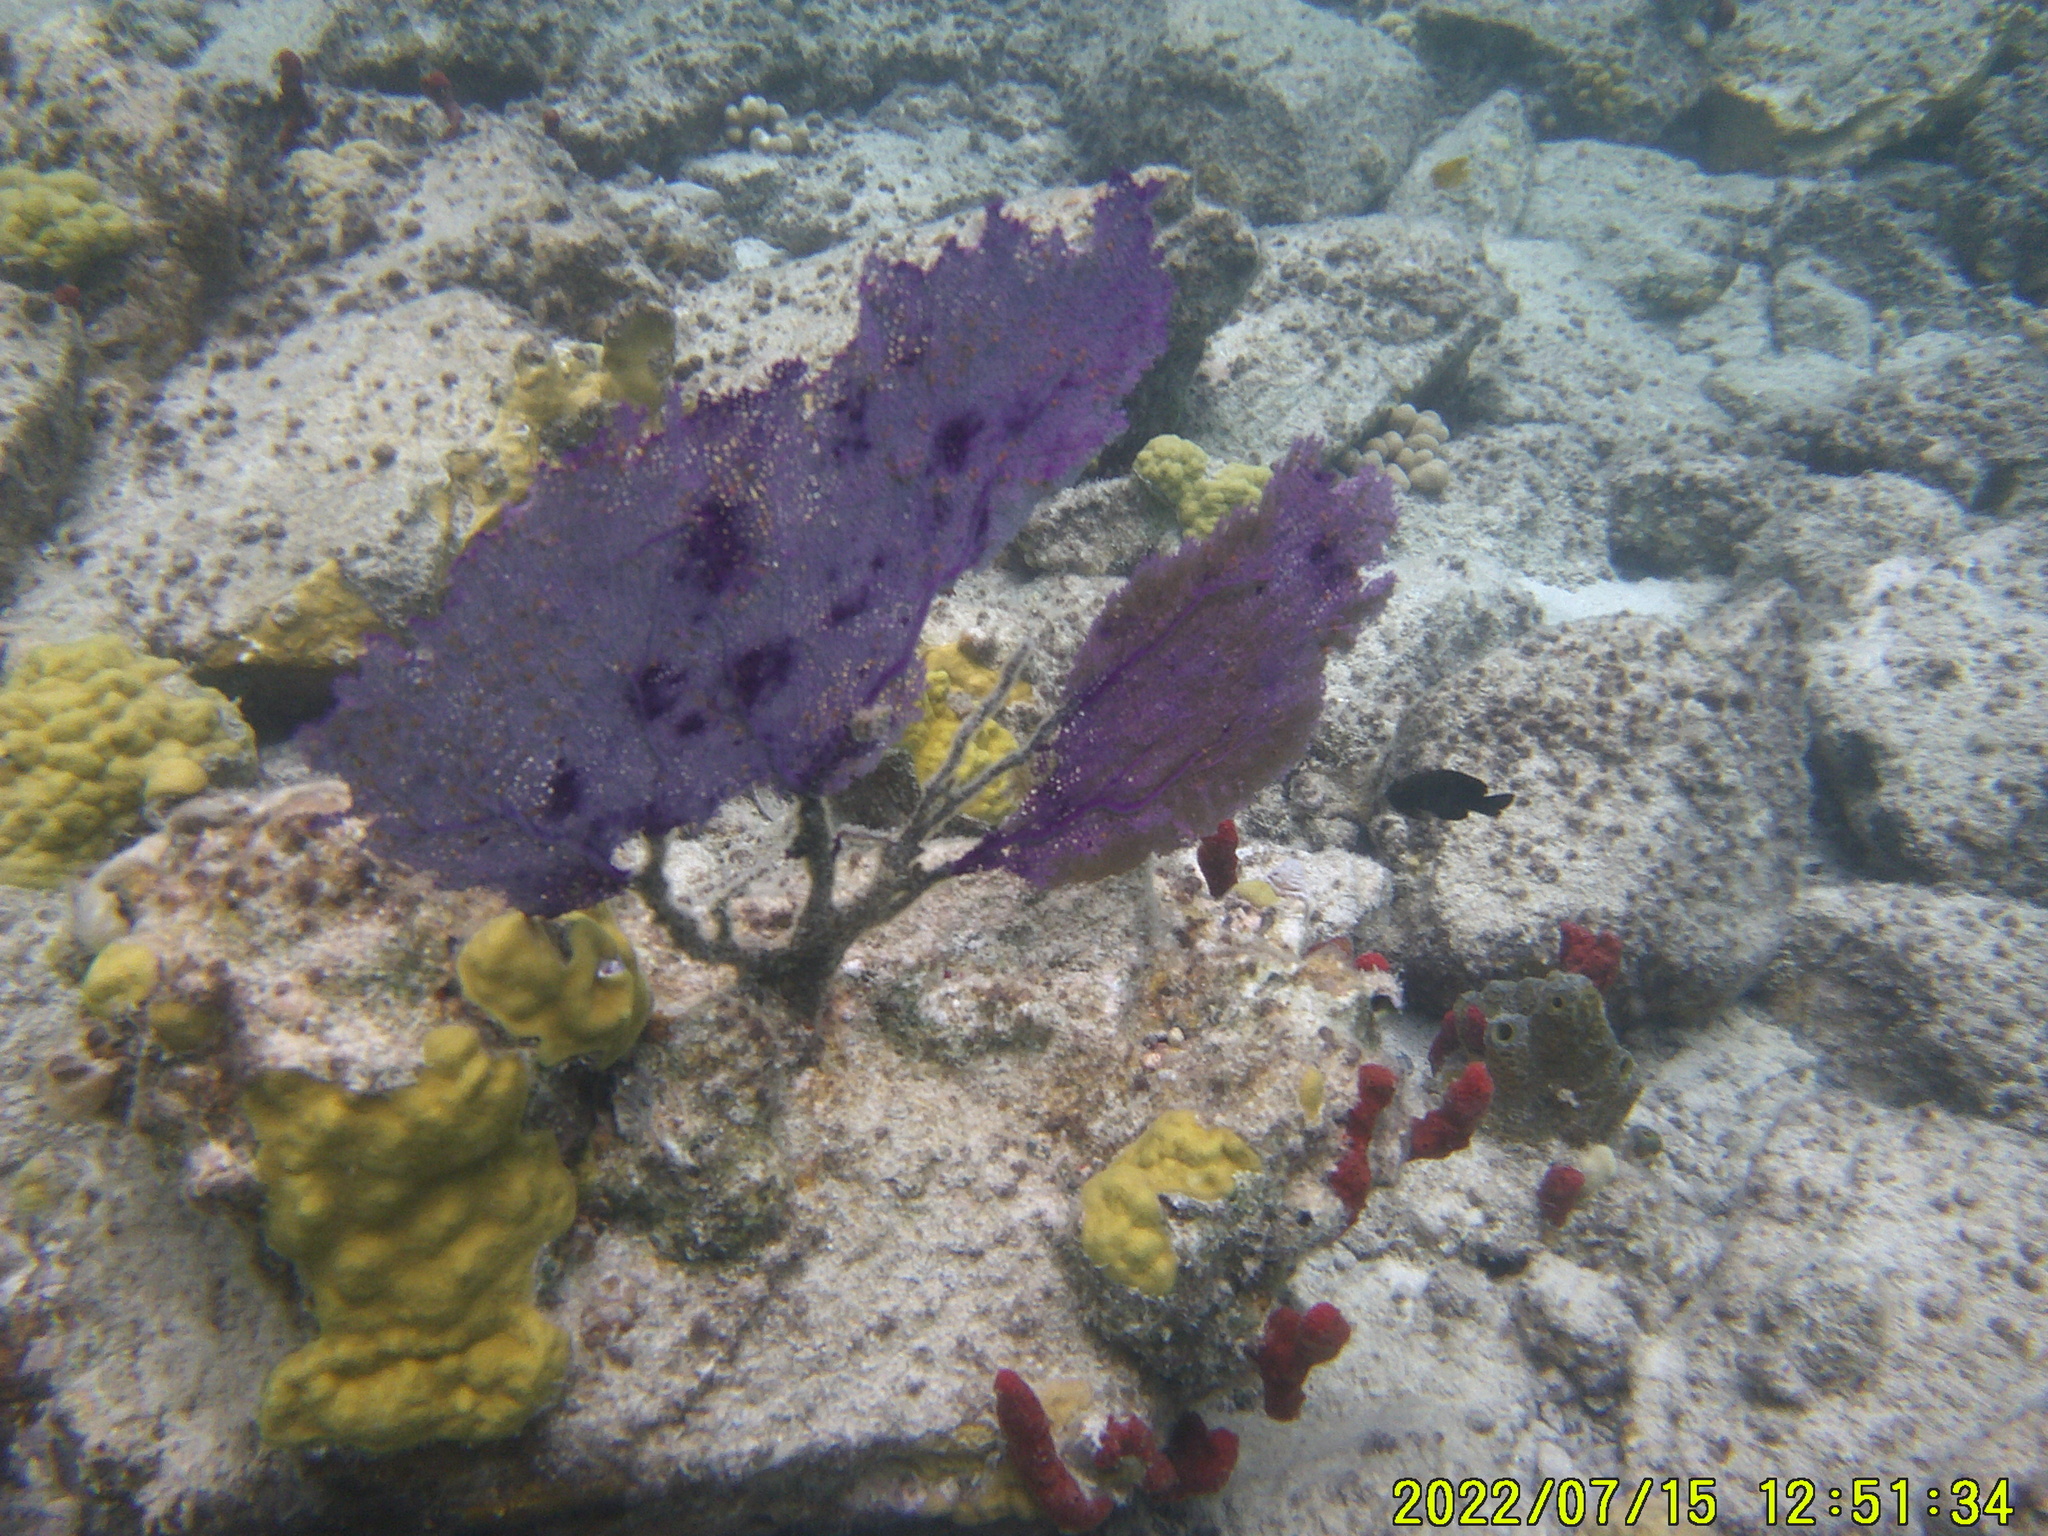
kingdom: Animalia
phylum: Cnidaria
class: Anthozoa
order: Malacalcyonacea
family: Gorgoniidae
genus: Gorgonia
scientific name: Gorgonia ventalina
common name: Common sea fan
